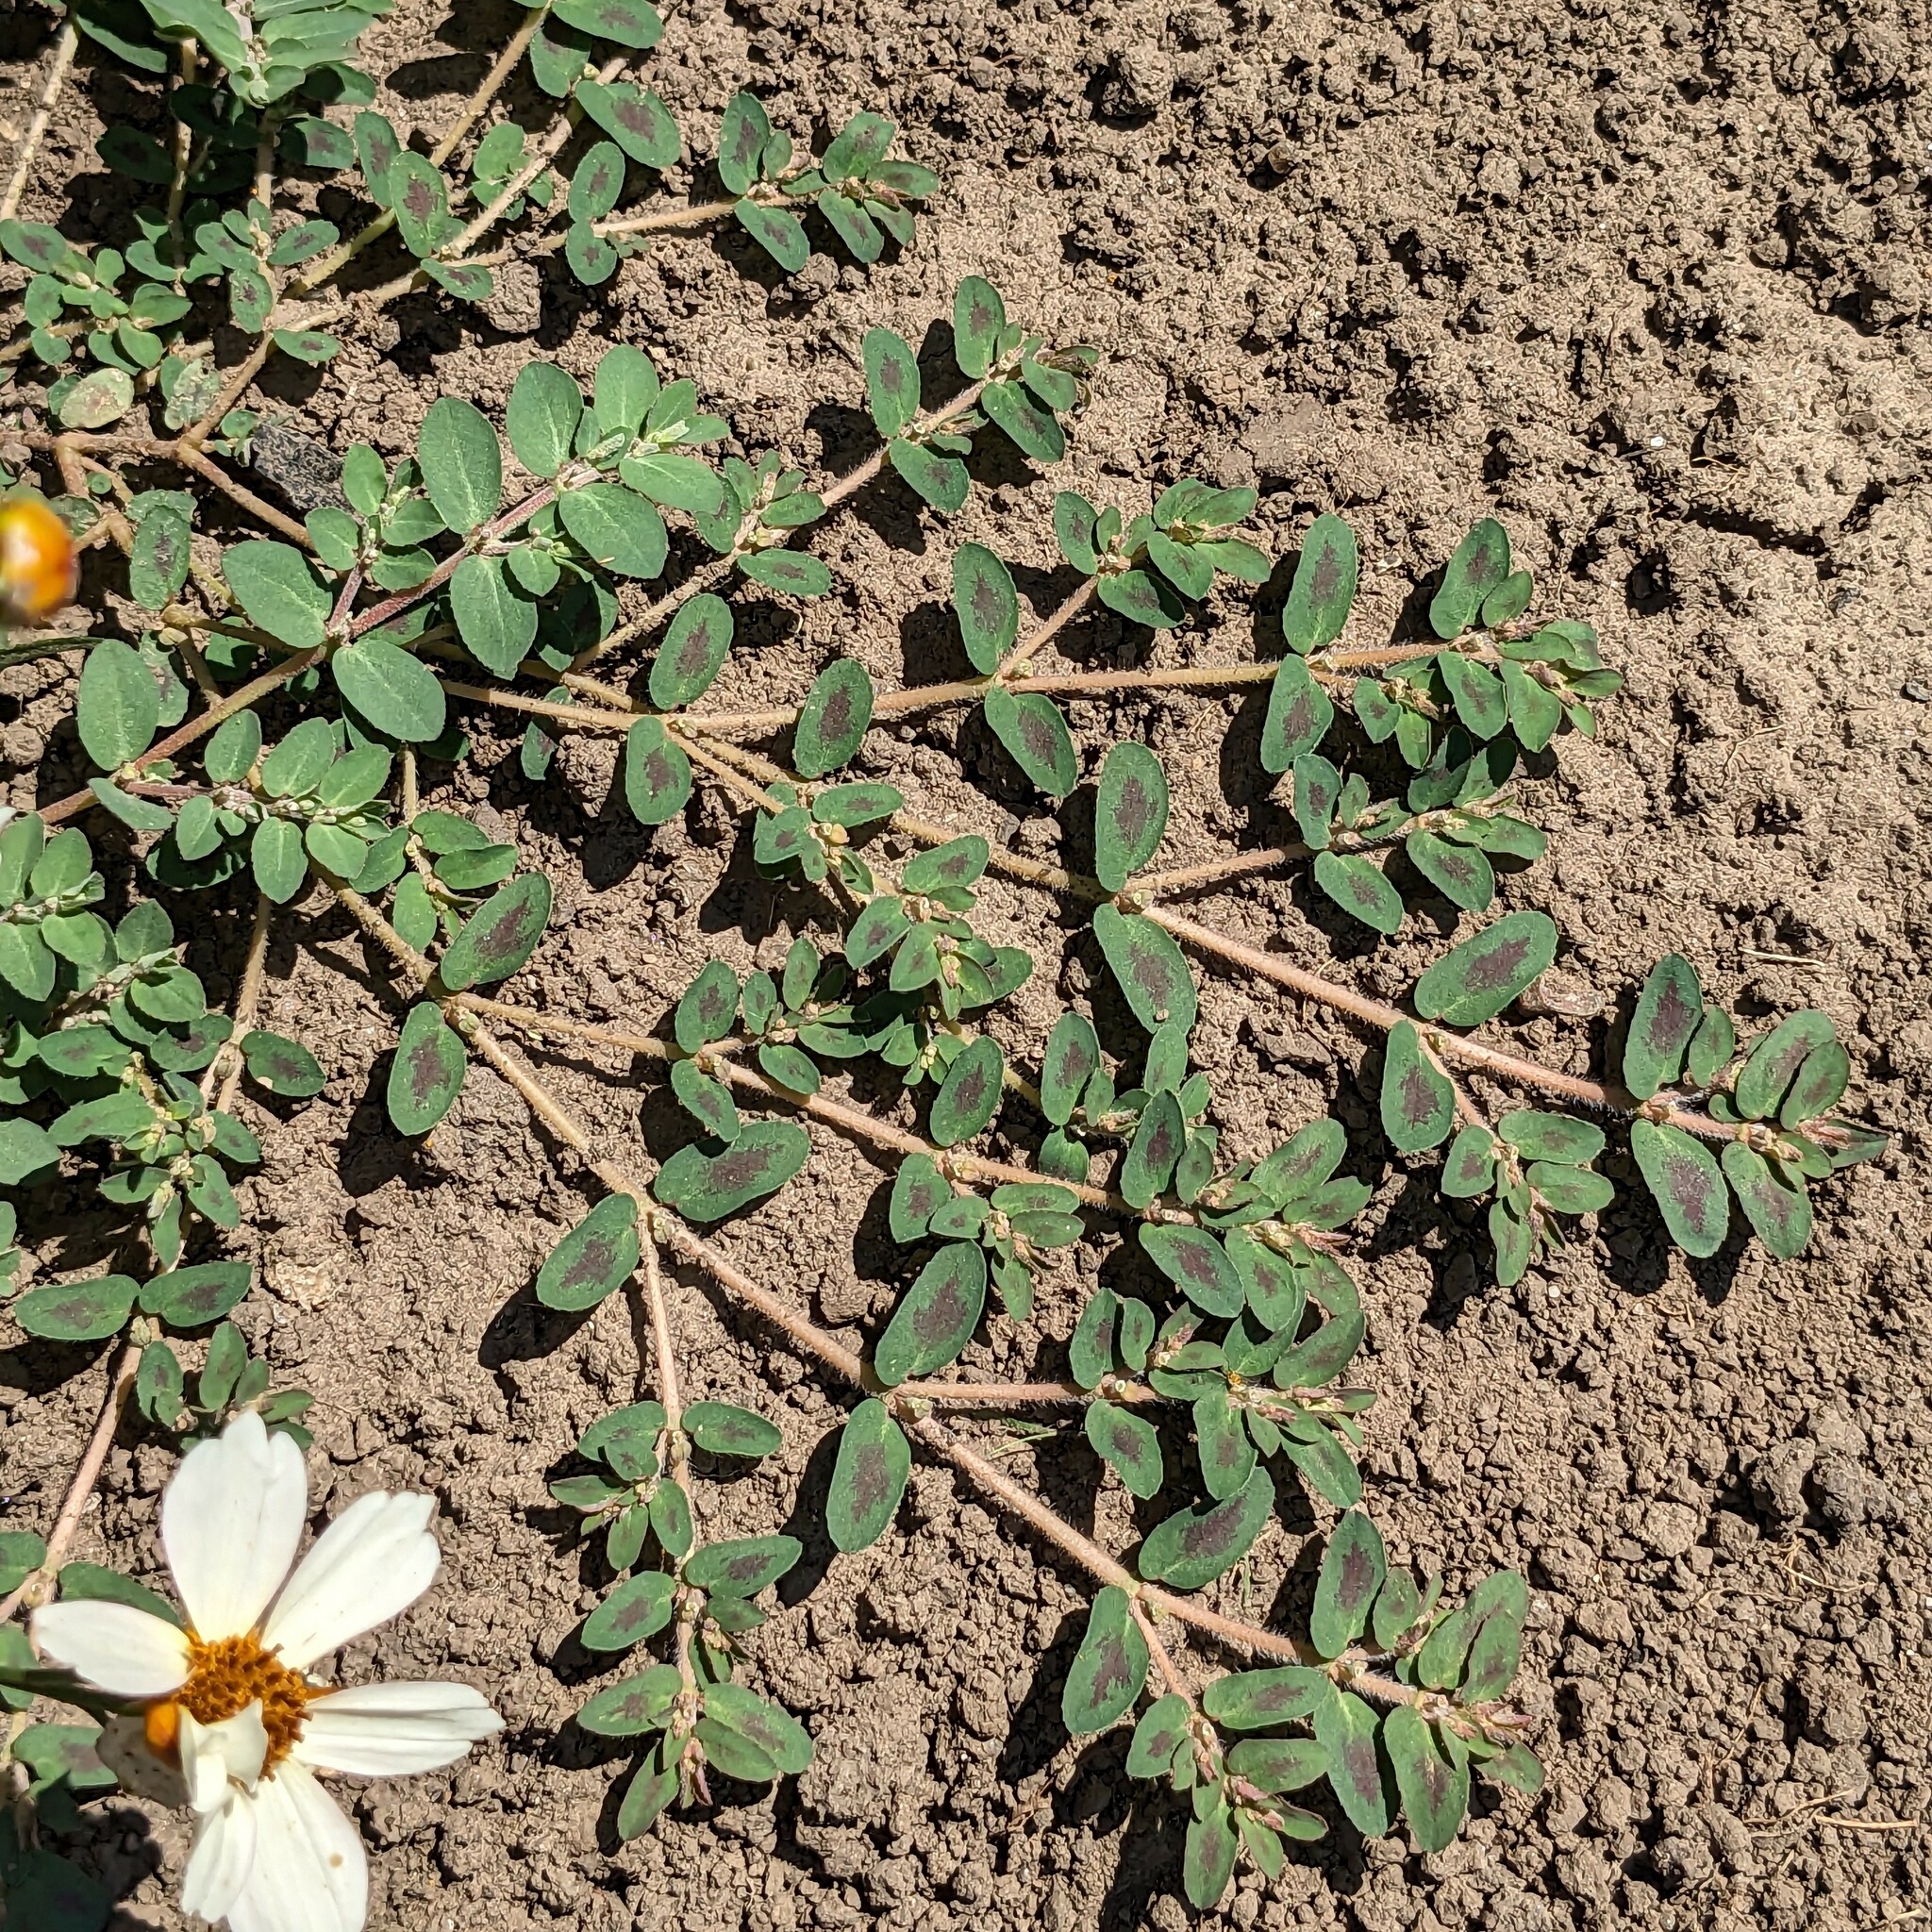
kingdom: Plantae
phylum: Tracheophyta
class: Magnoliopsida
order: Malpighiales
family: Euphorbiaceae
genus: Euphorbia
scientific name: Euphorbia maculata
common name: Spotted spurge
